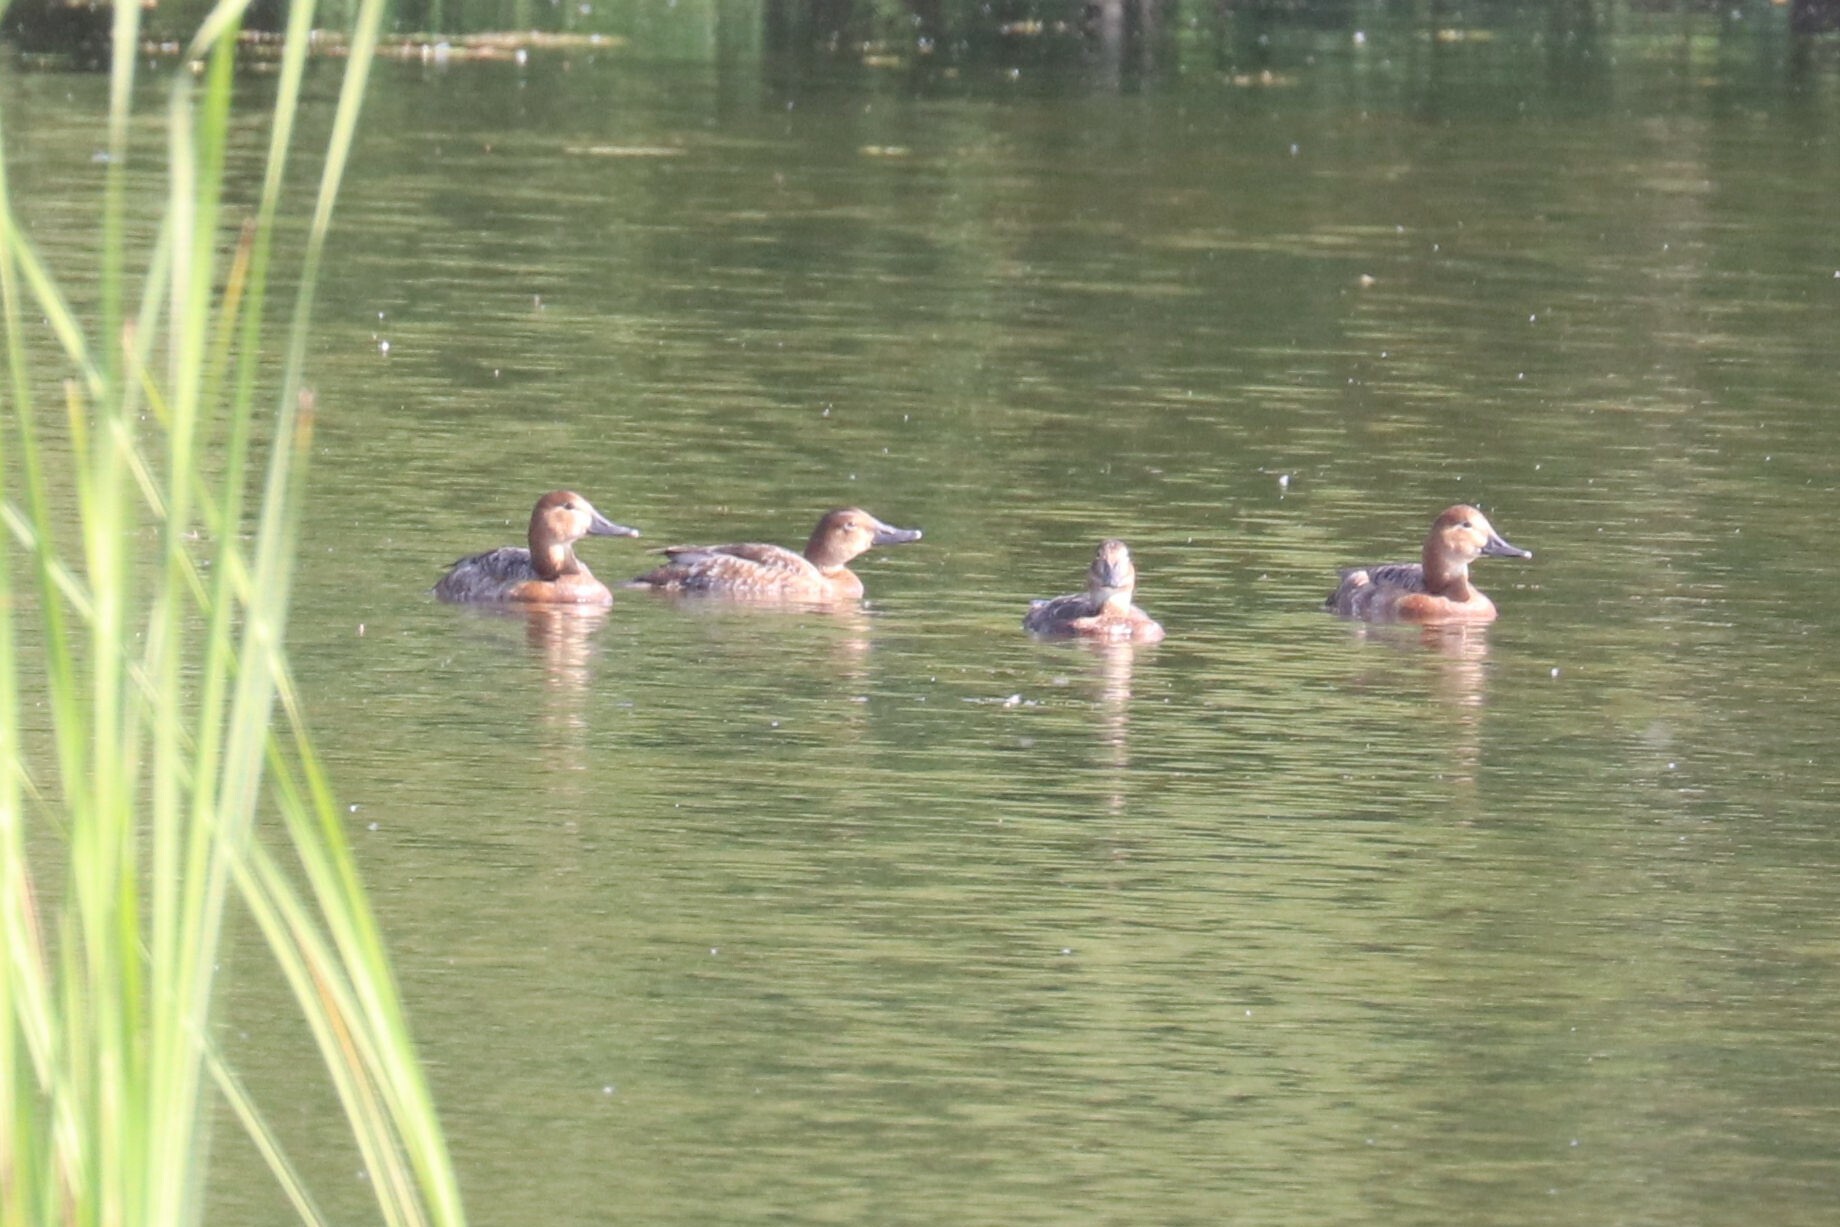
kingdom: Animalia
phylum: Chordata
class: Aves
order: Anseriformes
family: Anatidae
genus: Aythya
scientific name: Aythya ferina
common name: Common pochard
